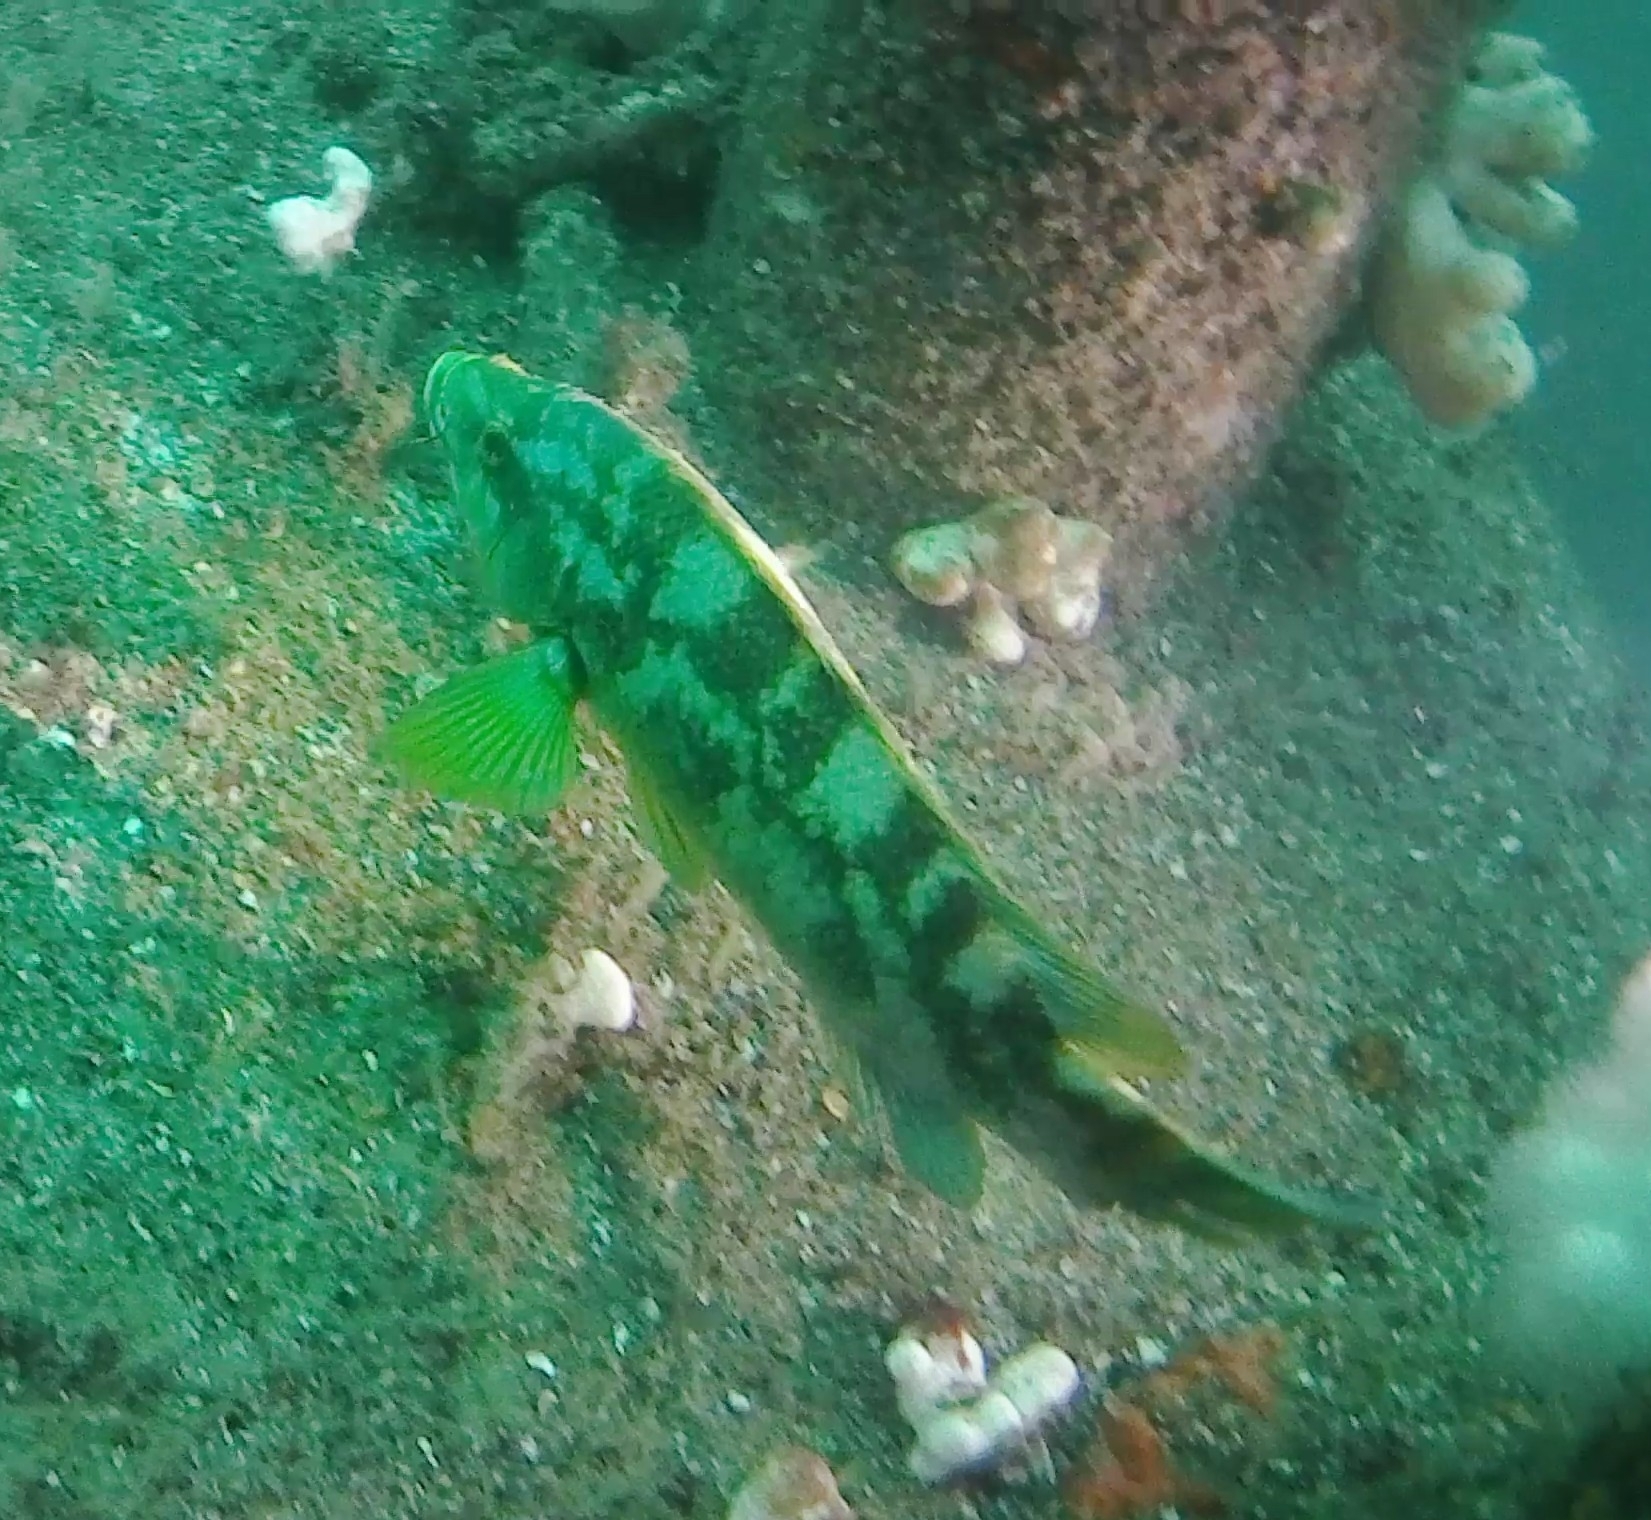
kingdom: Animalia
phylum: Chordata
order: Perciformes
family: Labridae
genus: Labrus
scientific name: Labrus bergylta
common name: Ballan wrasse
